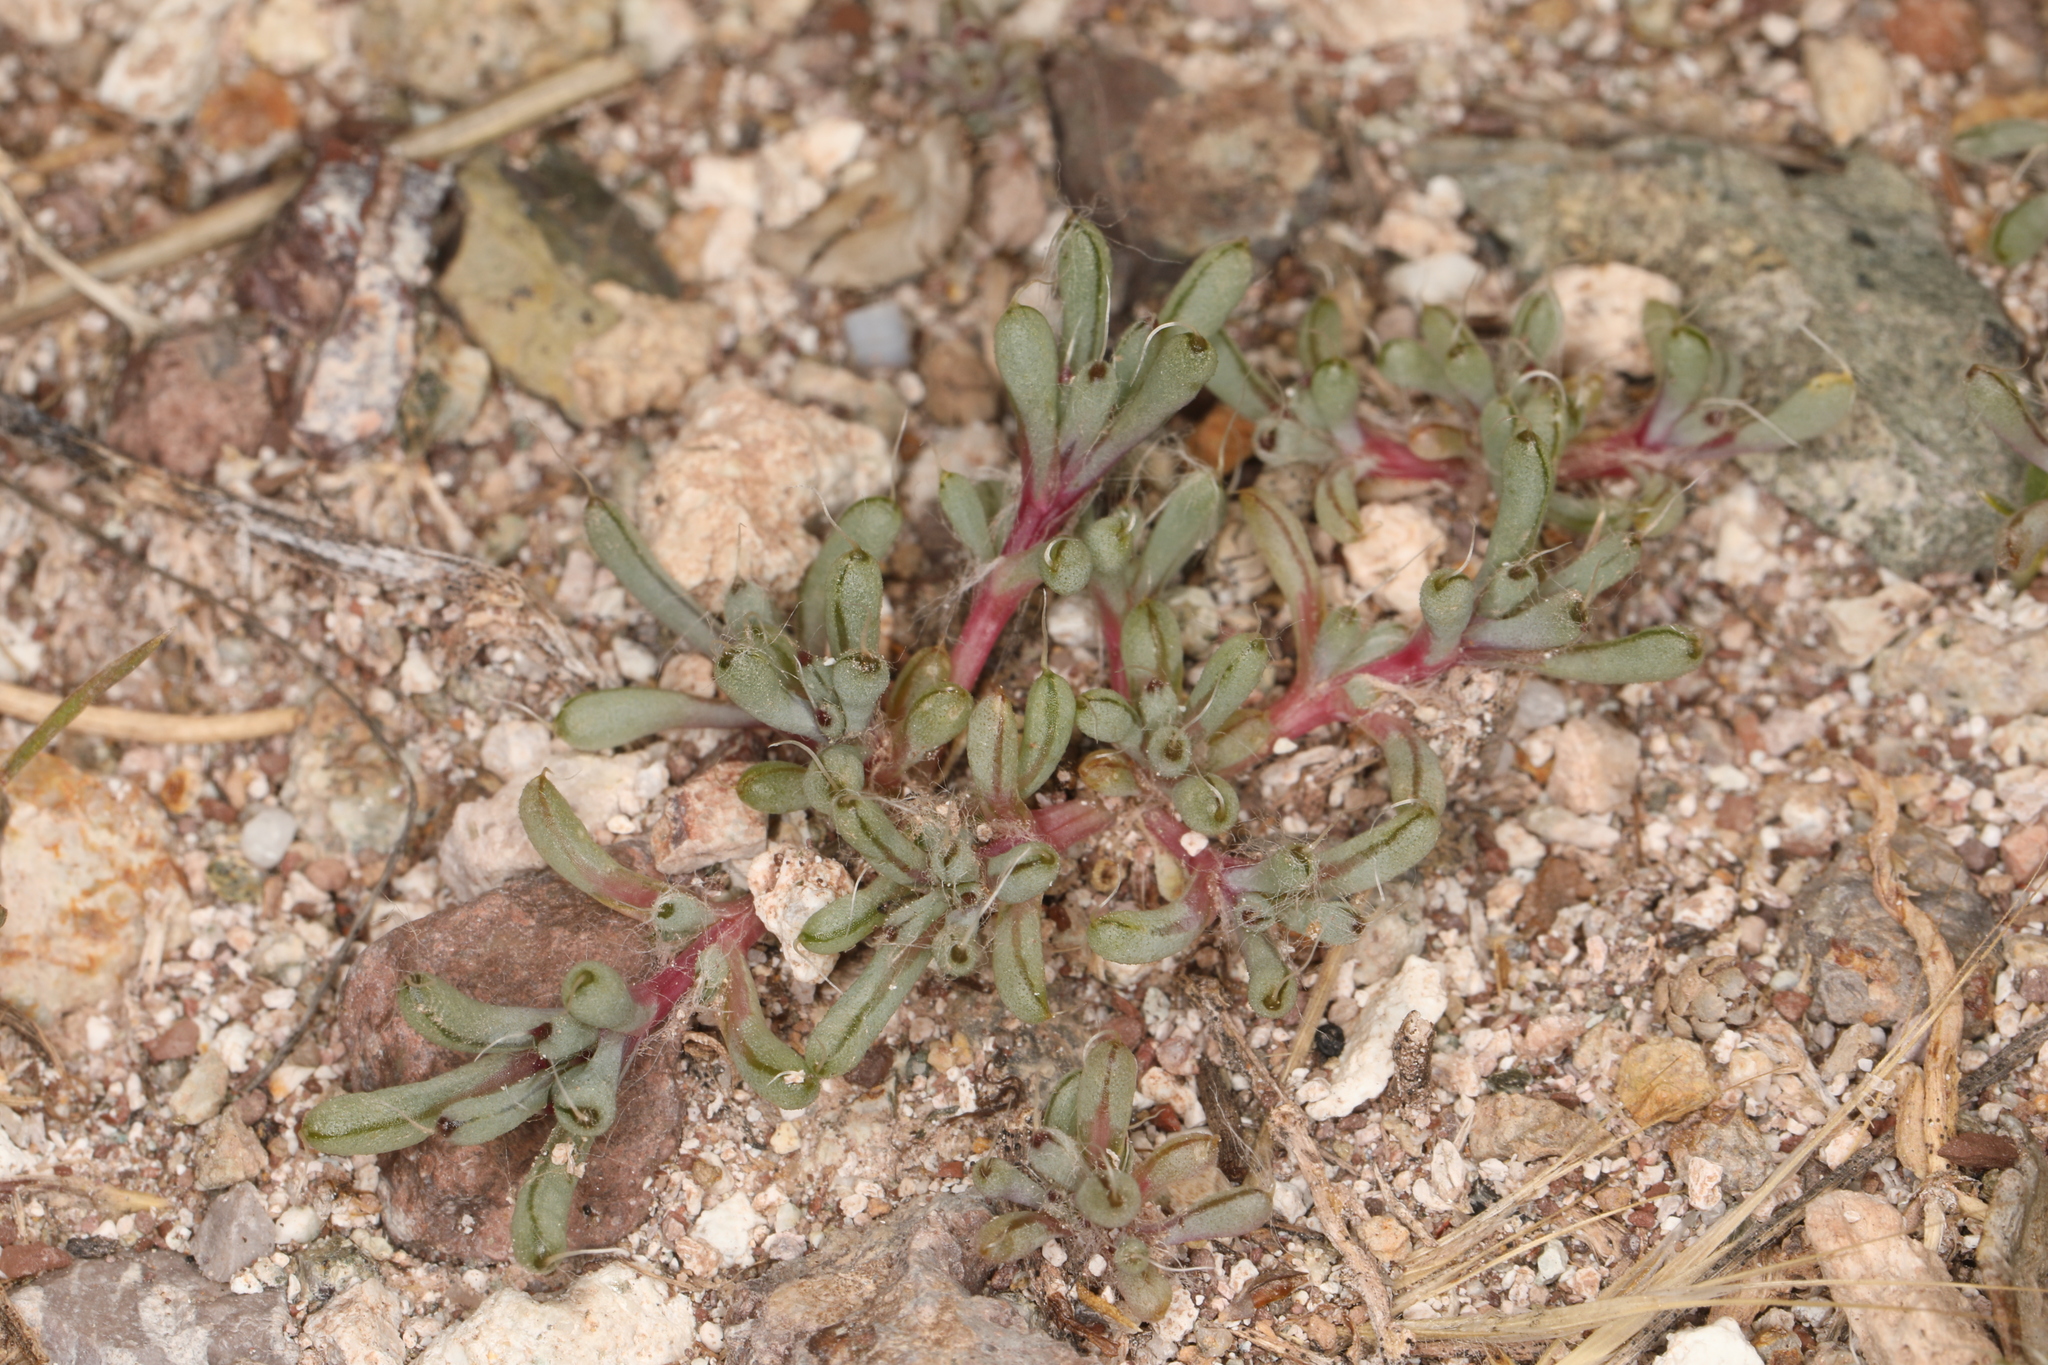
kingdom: Plantae
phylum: Tracheophyta
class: Magnoliopsida
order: Caryophyllales
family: Amaranthaceae
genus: Halogeton
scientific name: Halogeton glomeratus
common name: Saltlover
